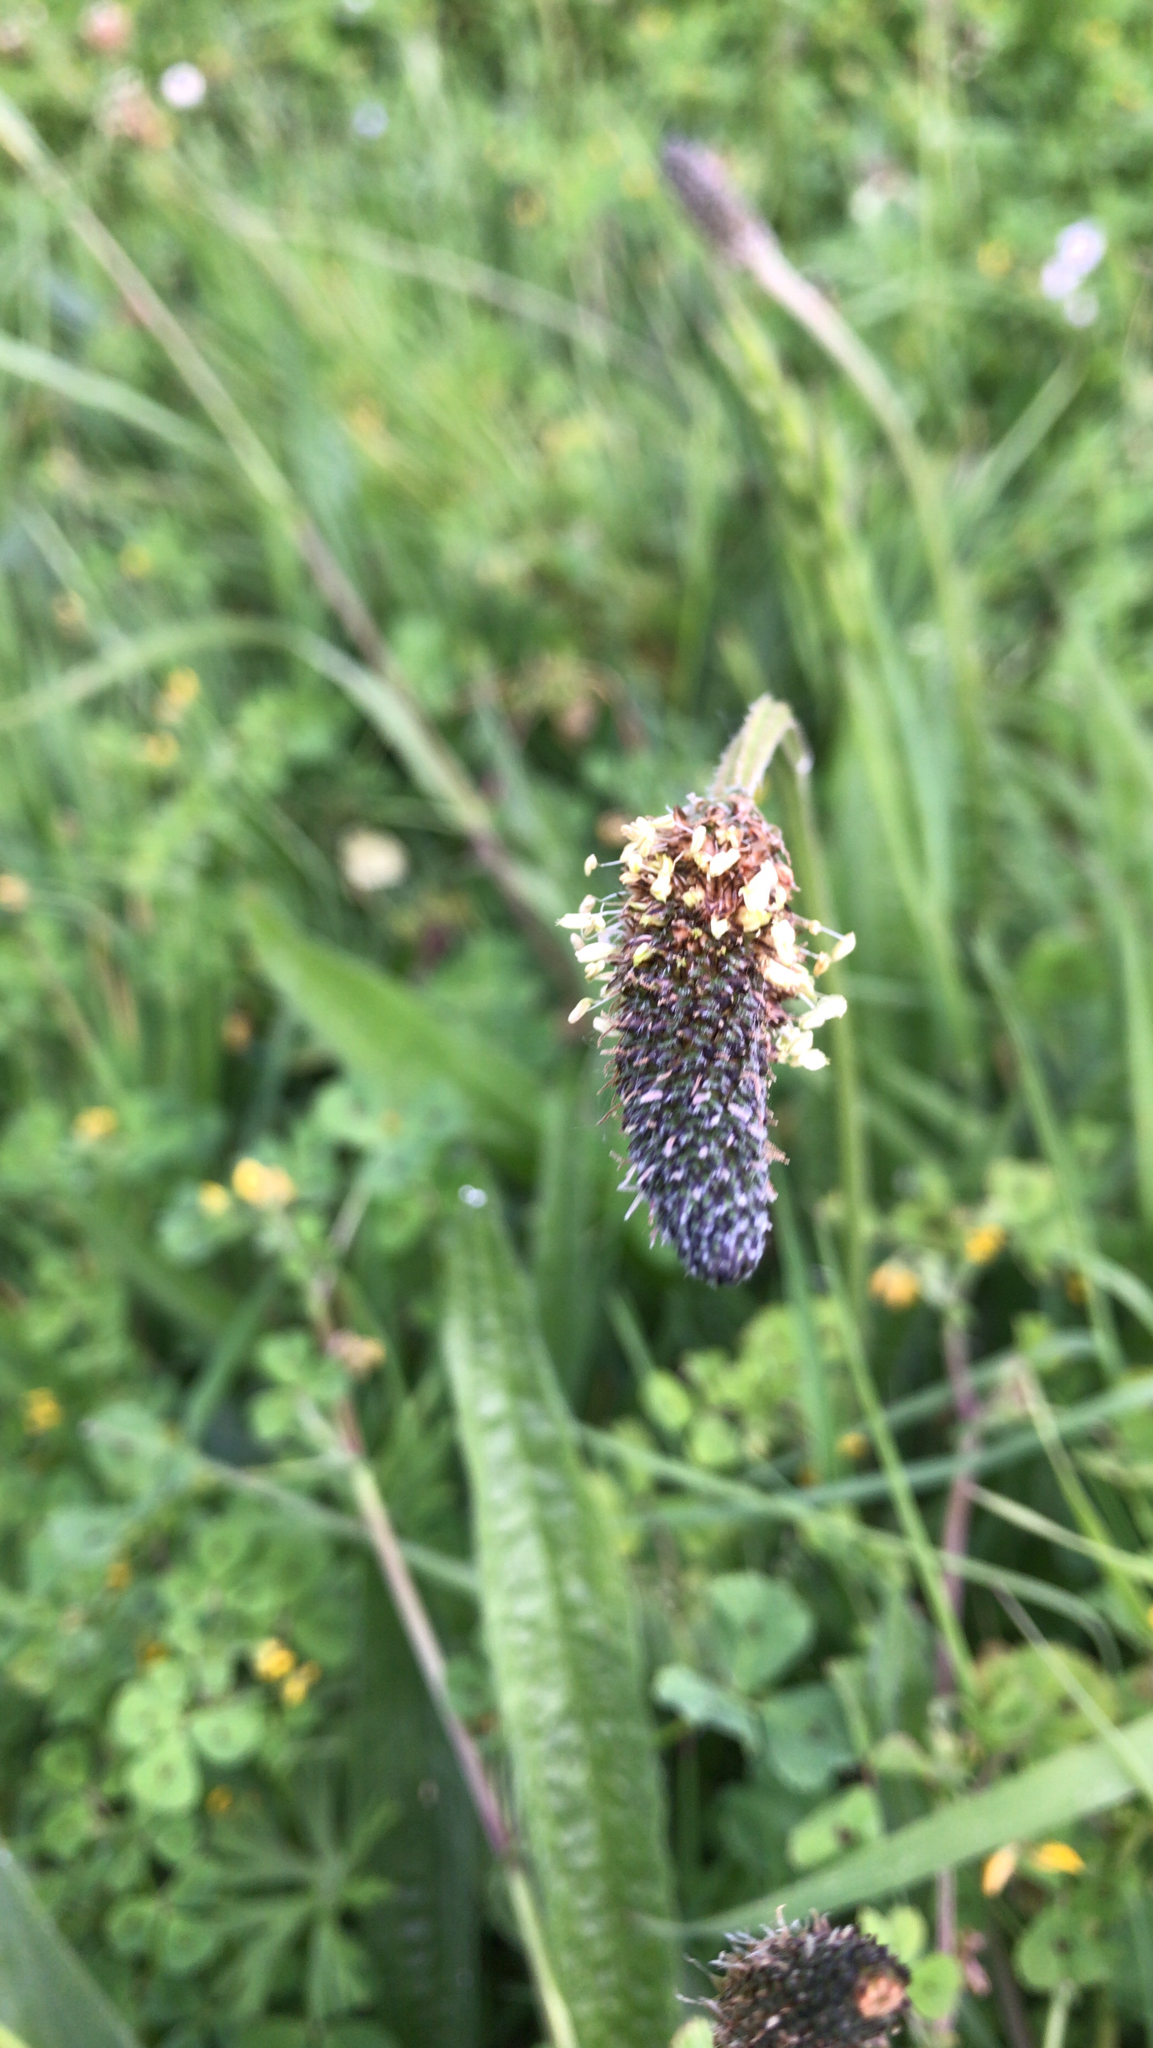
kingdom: Plantae
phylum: Tracheophyta
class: Magnoliopsida
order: Lamiales
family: Plantaginaceae
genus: Plantago
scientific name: Plantago lanceolata
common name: Ribwort plantain
